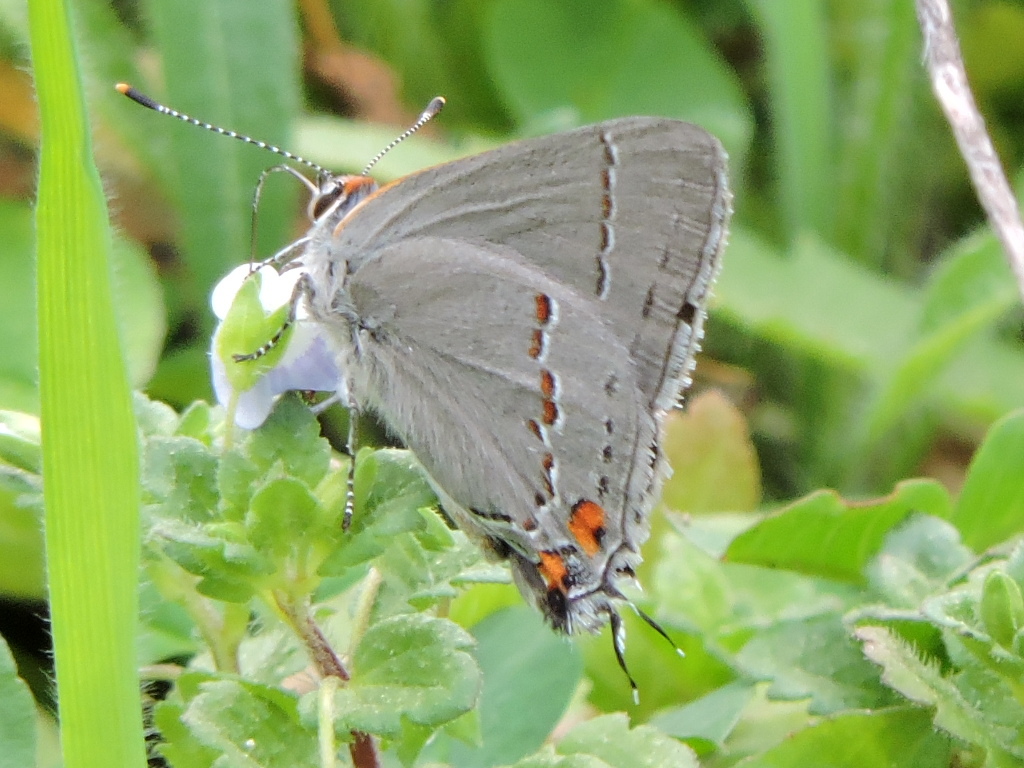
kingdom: Animalia
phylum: Arthropoda
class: Insecta
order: Lepidoptera
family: Lycaenidae
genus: Strymon
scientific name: Strymon melinus
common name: Gray hairstreak
